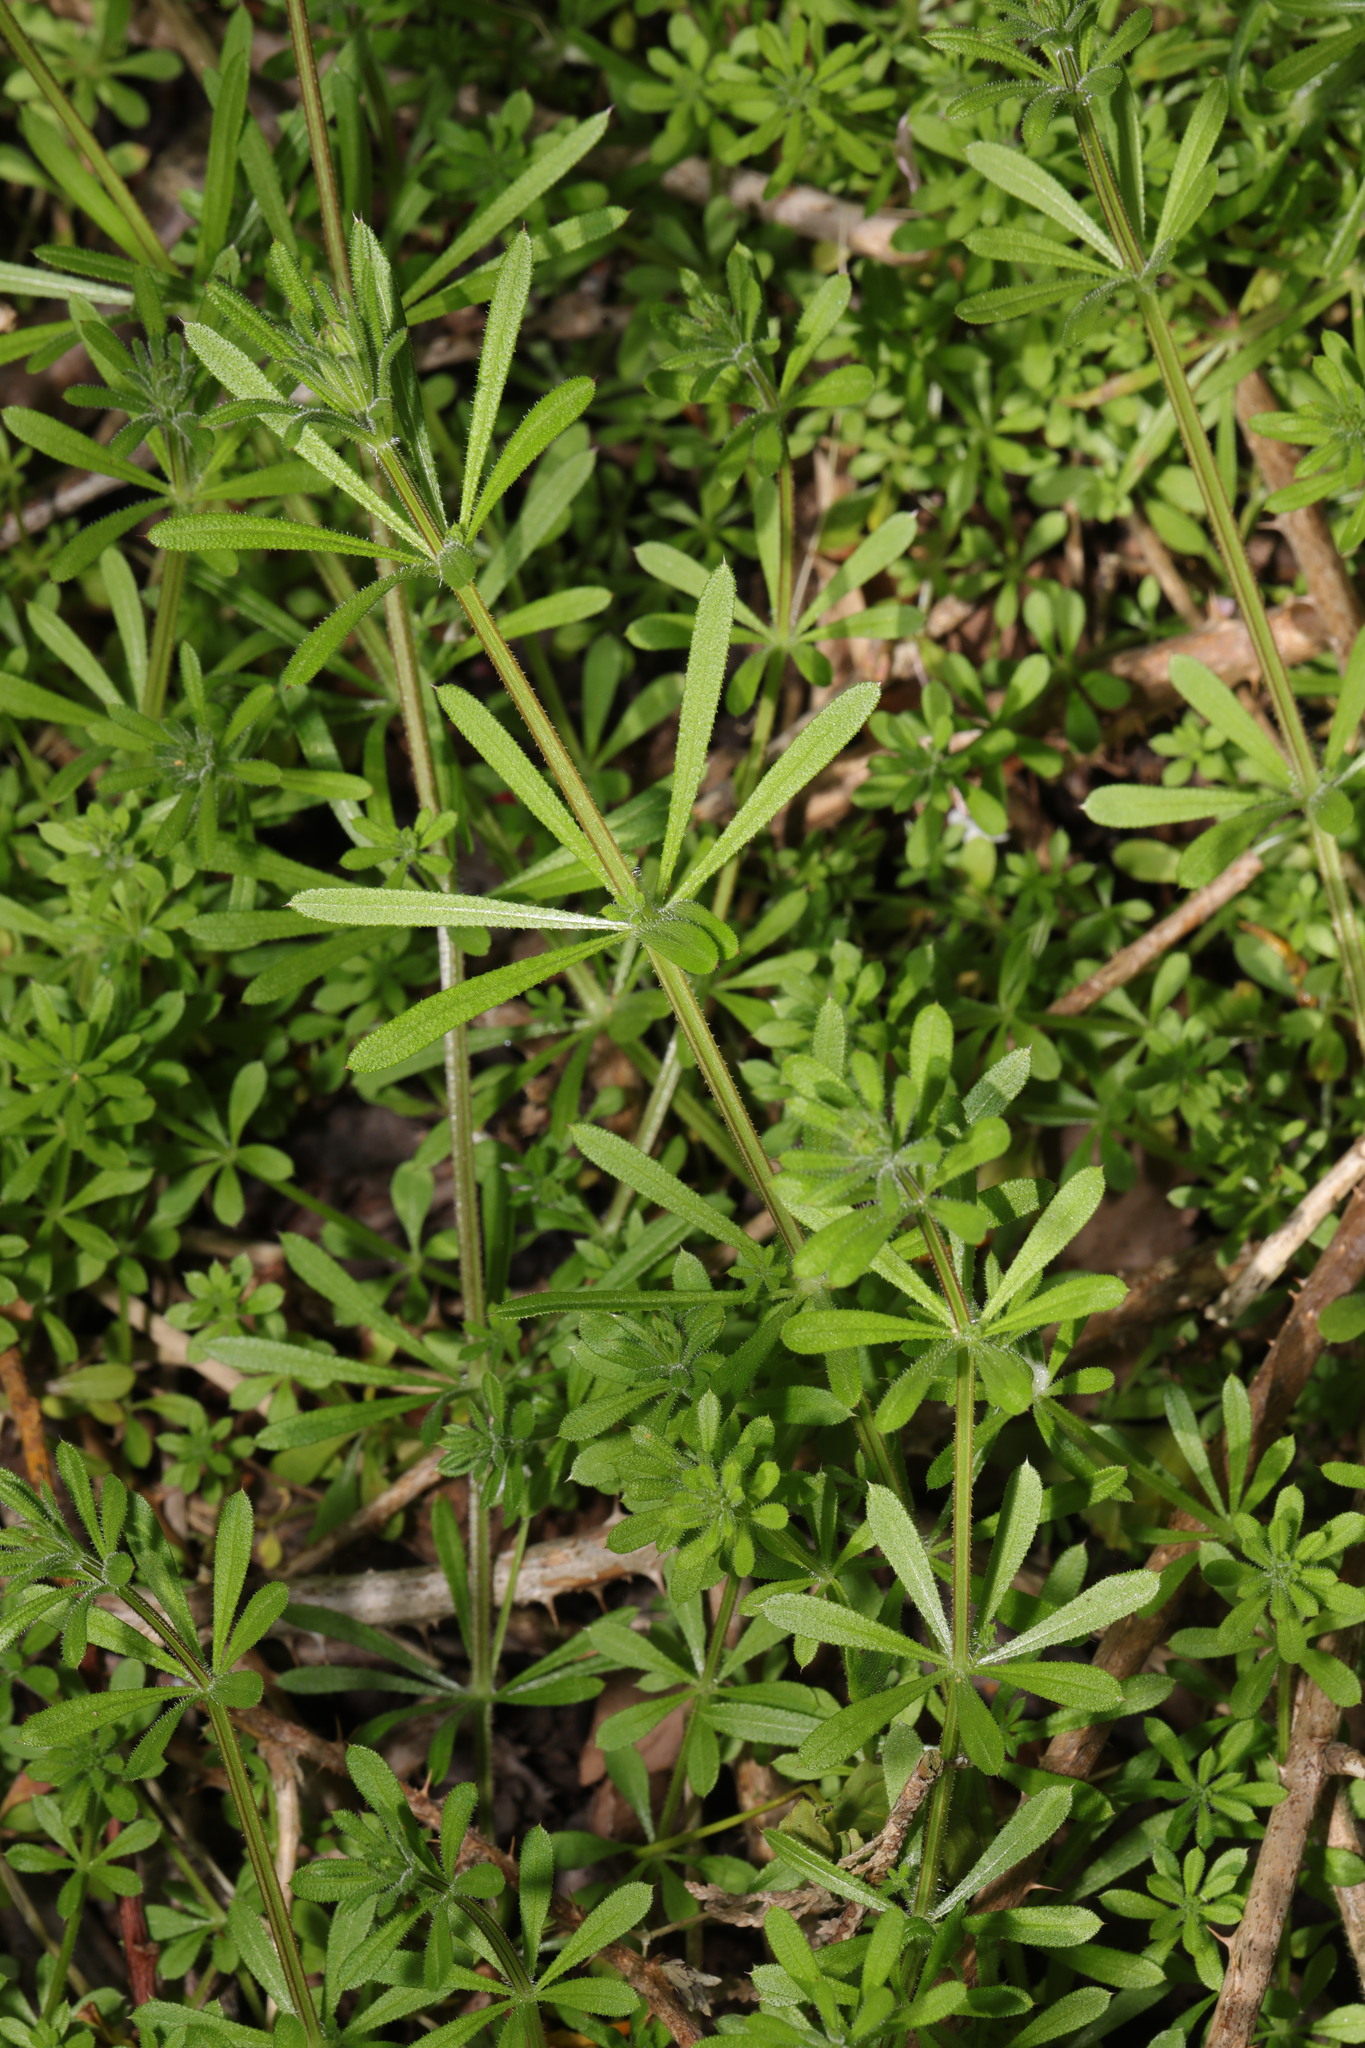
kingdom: Plantae
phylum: Tracheophyta
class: Magnoliopsida
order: Gentianales
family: Rubiaceae
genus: Galium
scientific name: Galium aparine
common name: Cleavers
